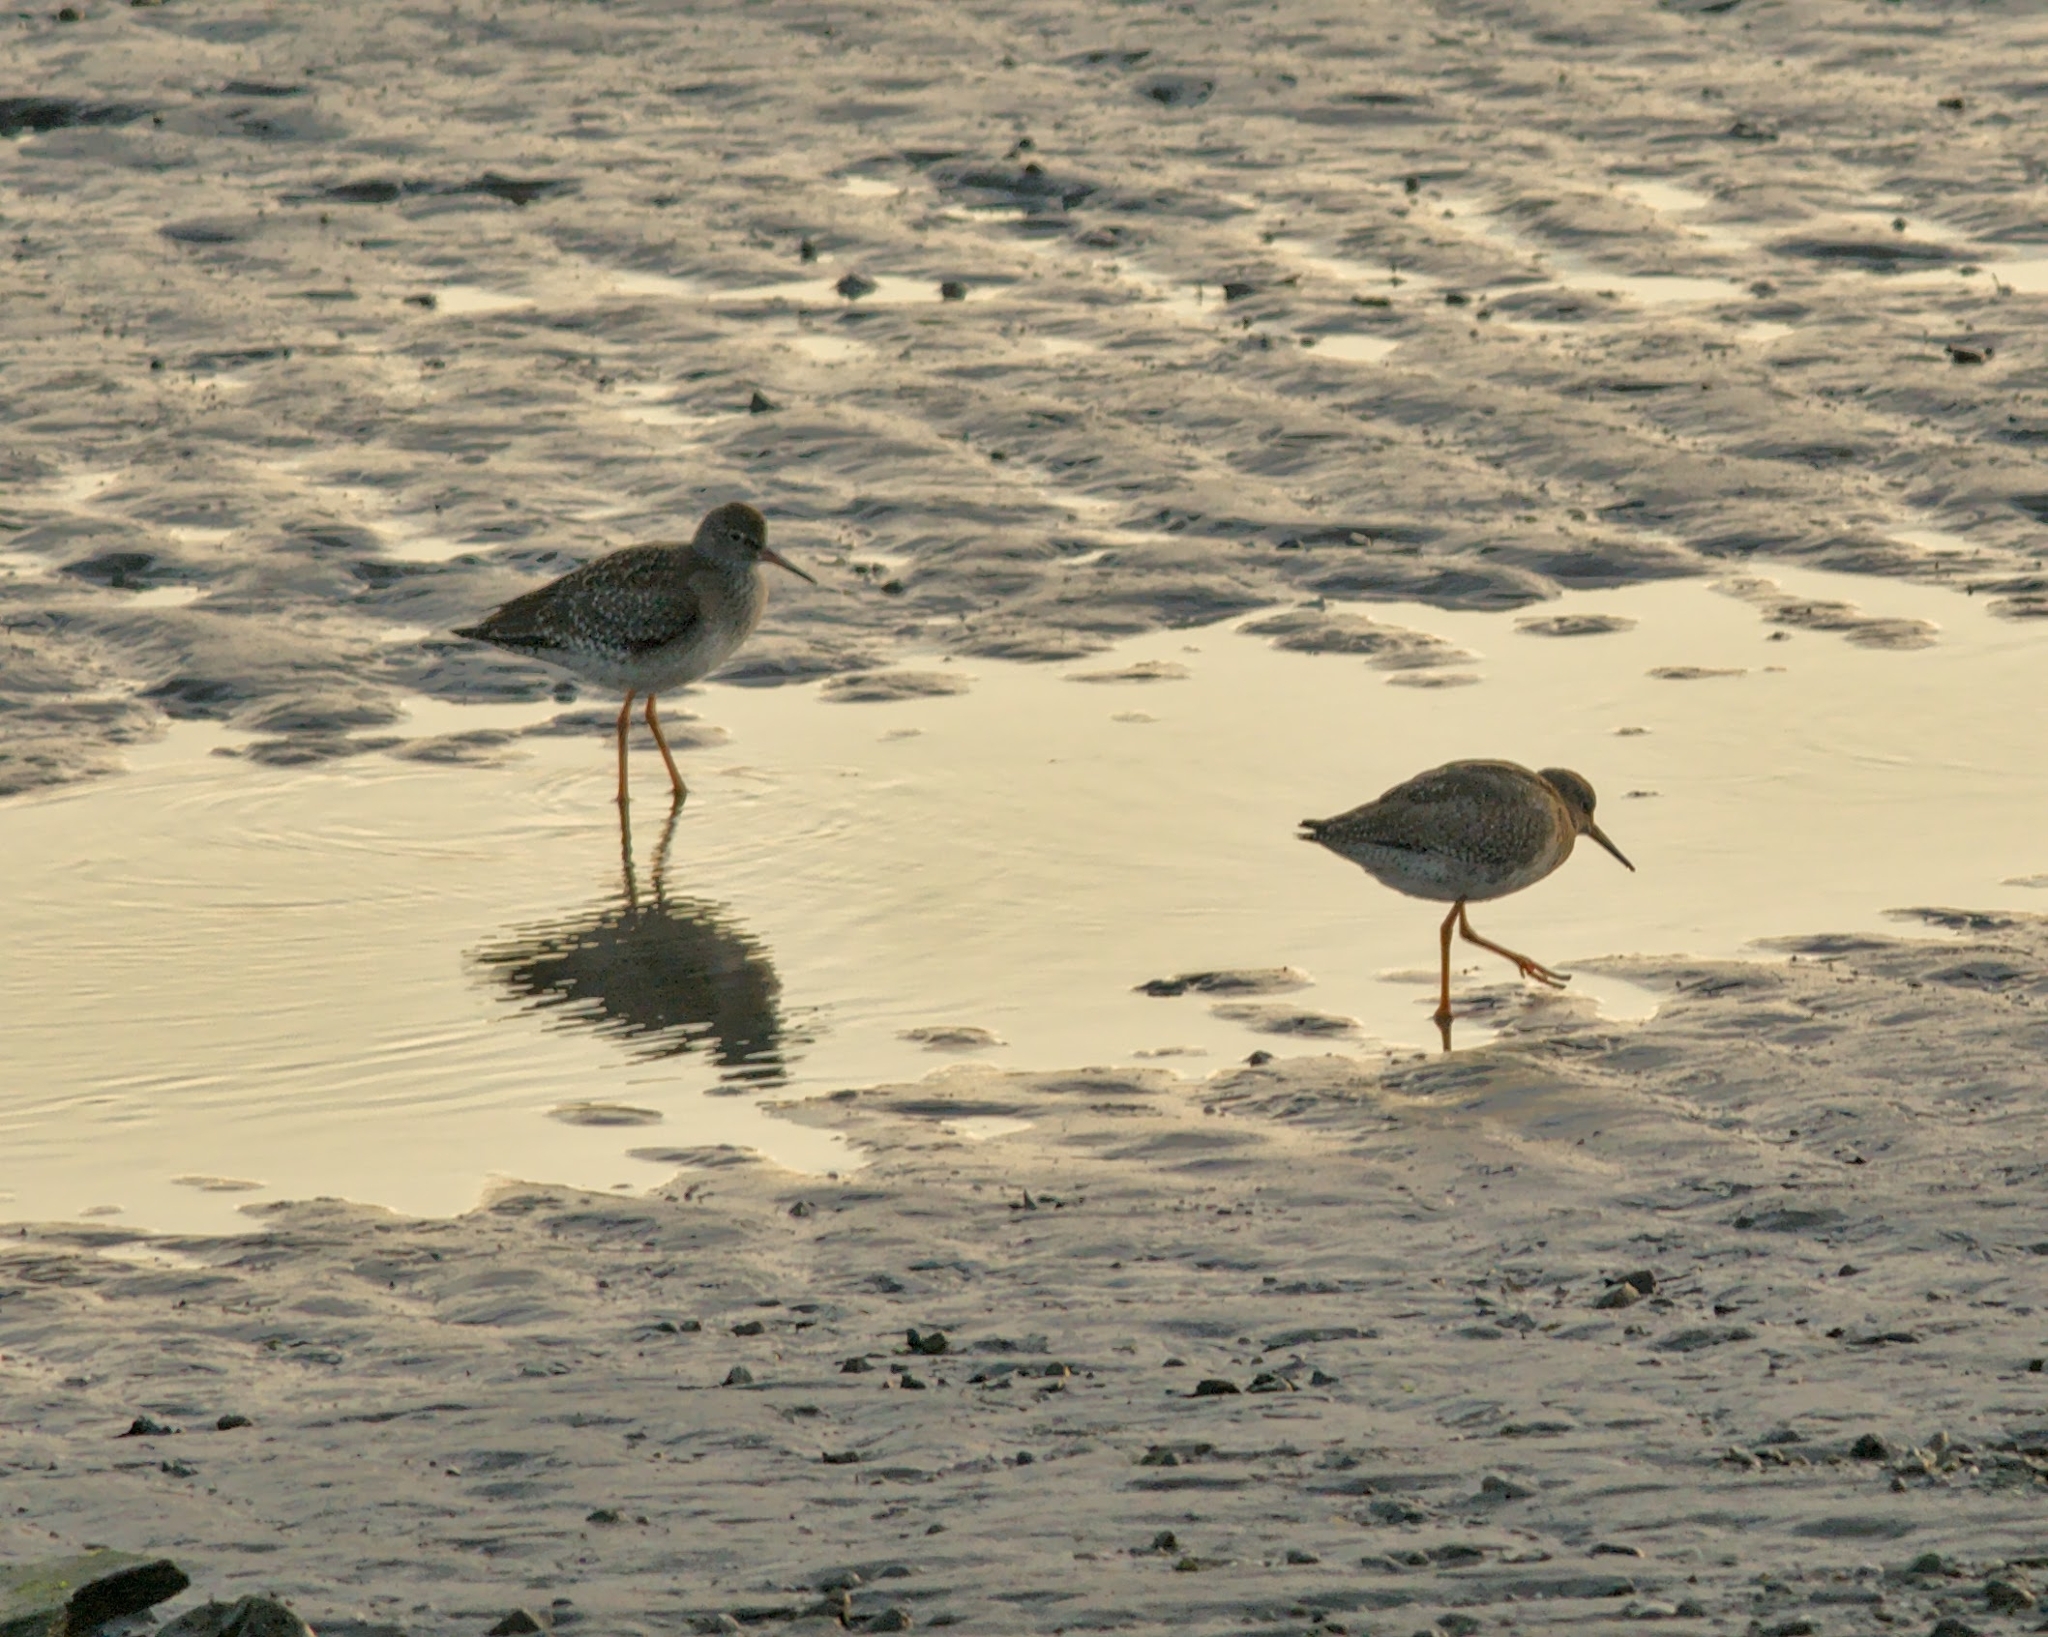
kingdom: Animalia
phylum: Chordata
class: Aves
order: Charadriiformes
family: Scolopacidae
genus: Tringa
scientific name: Tringa totanus
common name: Common redshank
